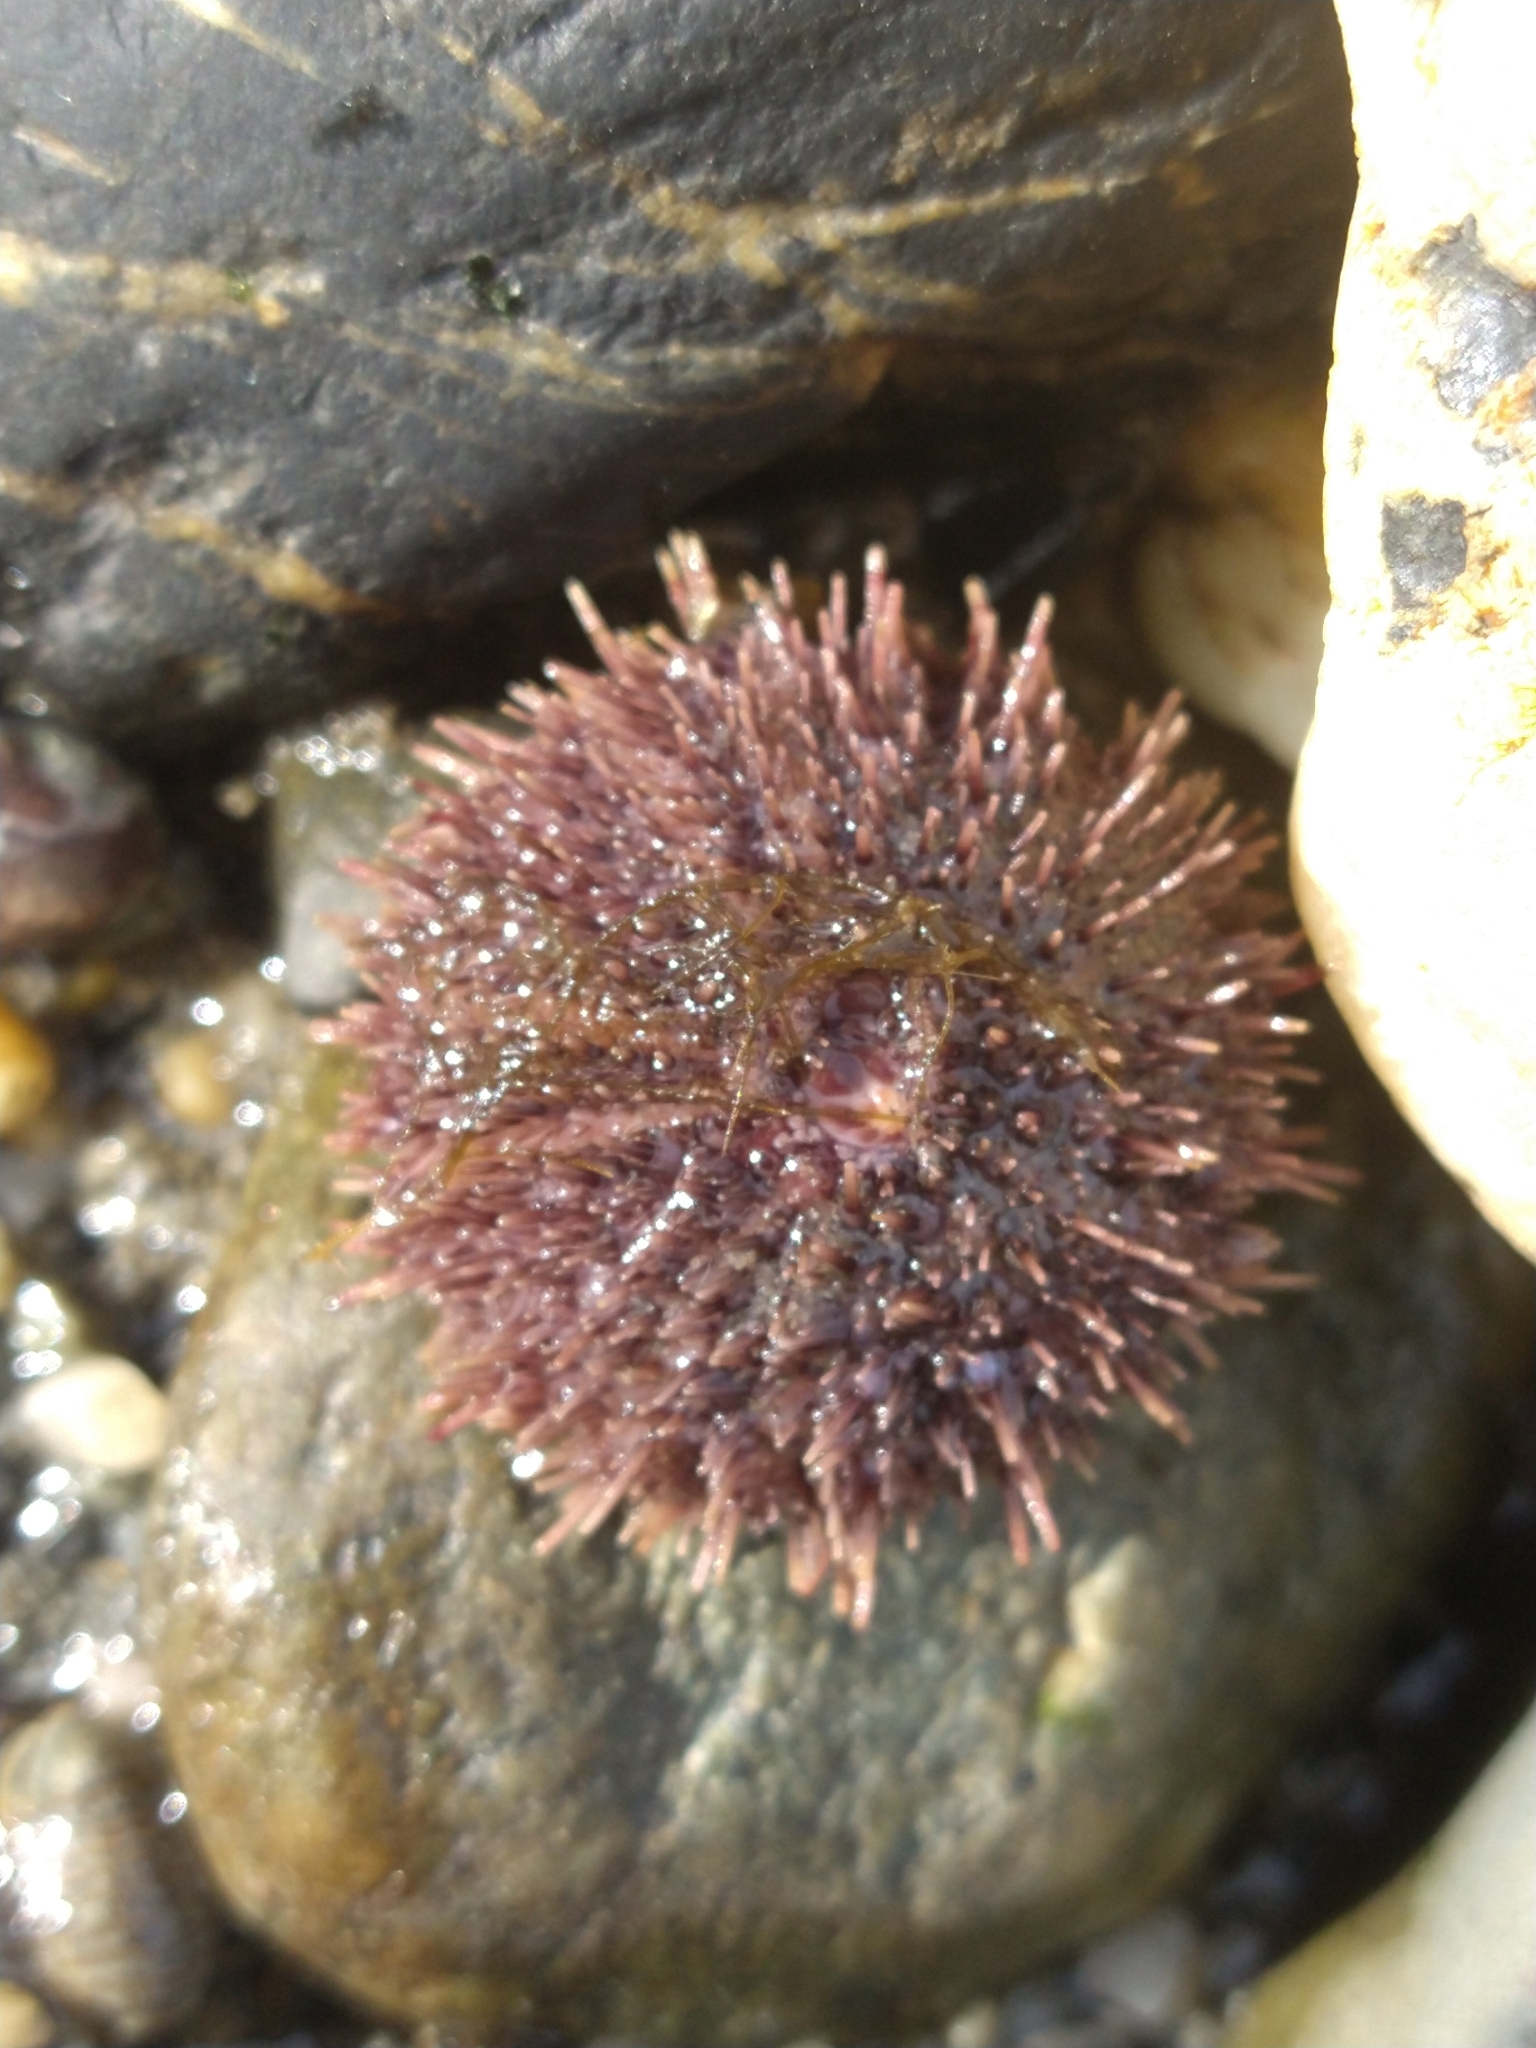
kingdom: Animalia
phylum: Echinodermata
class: Echinoidea
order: Camarodonta
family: Temnopleuridae
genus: Pseudechinus
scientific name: Pseudechinus magellanicus
